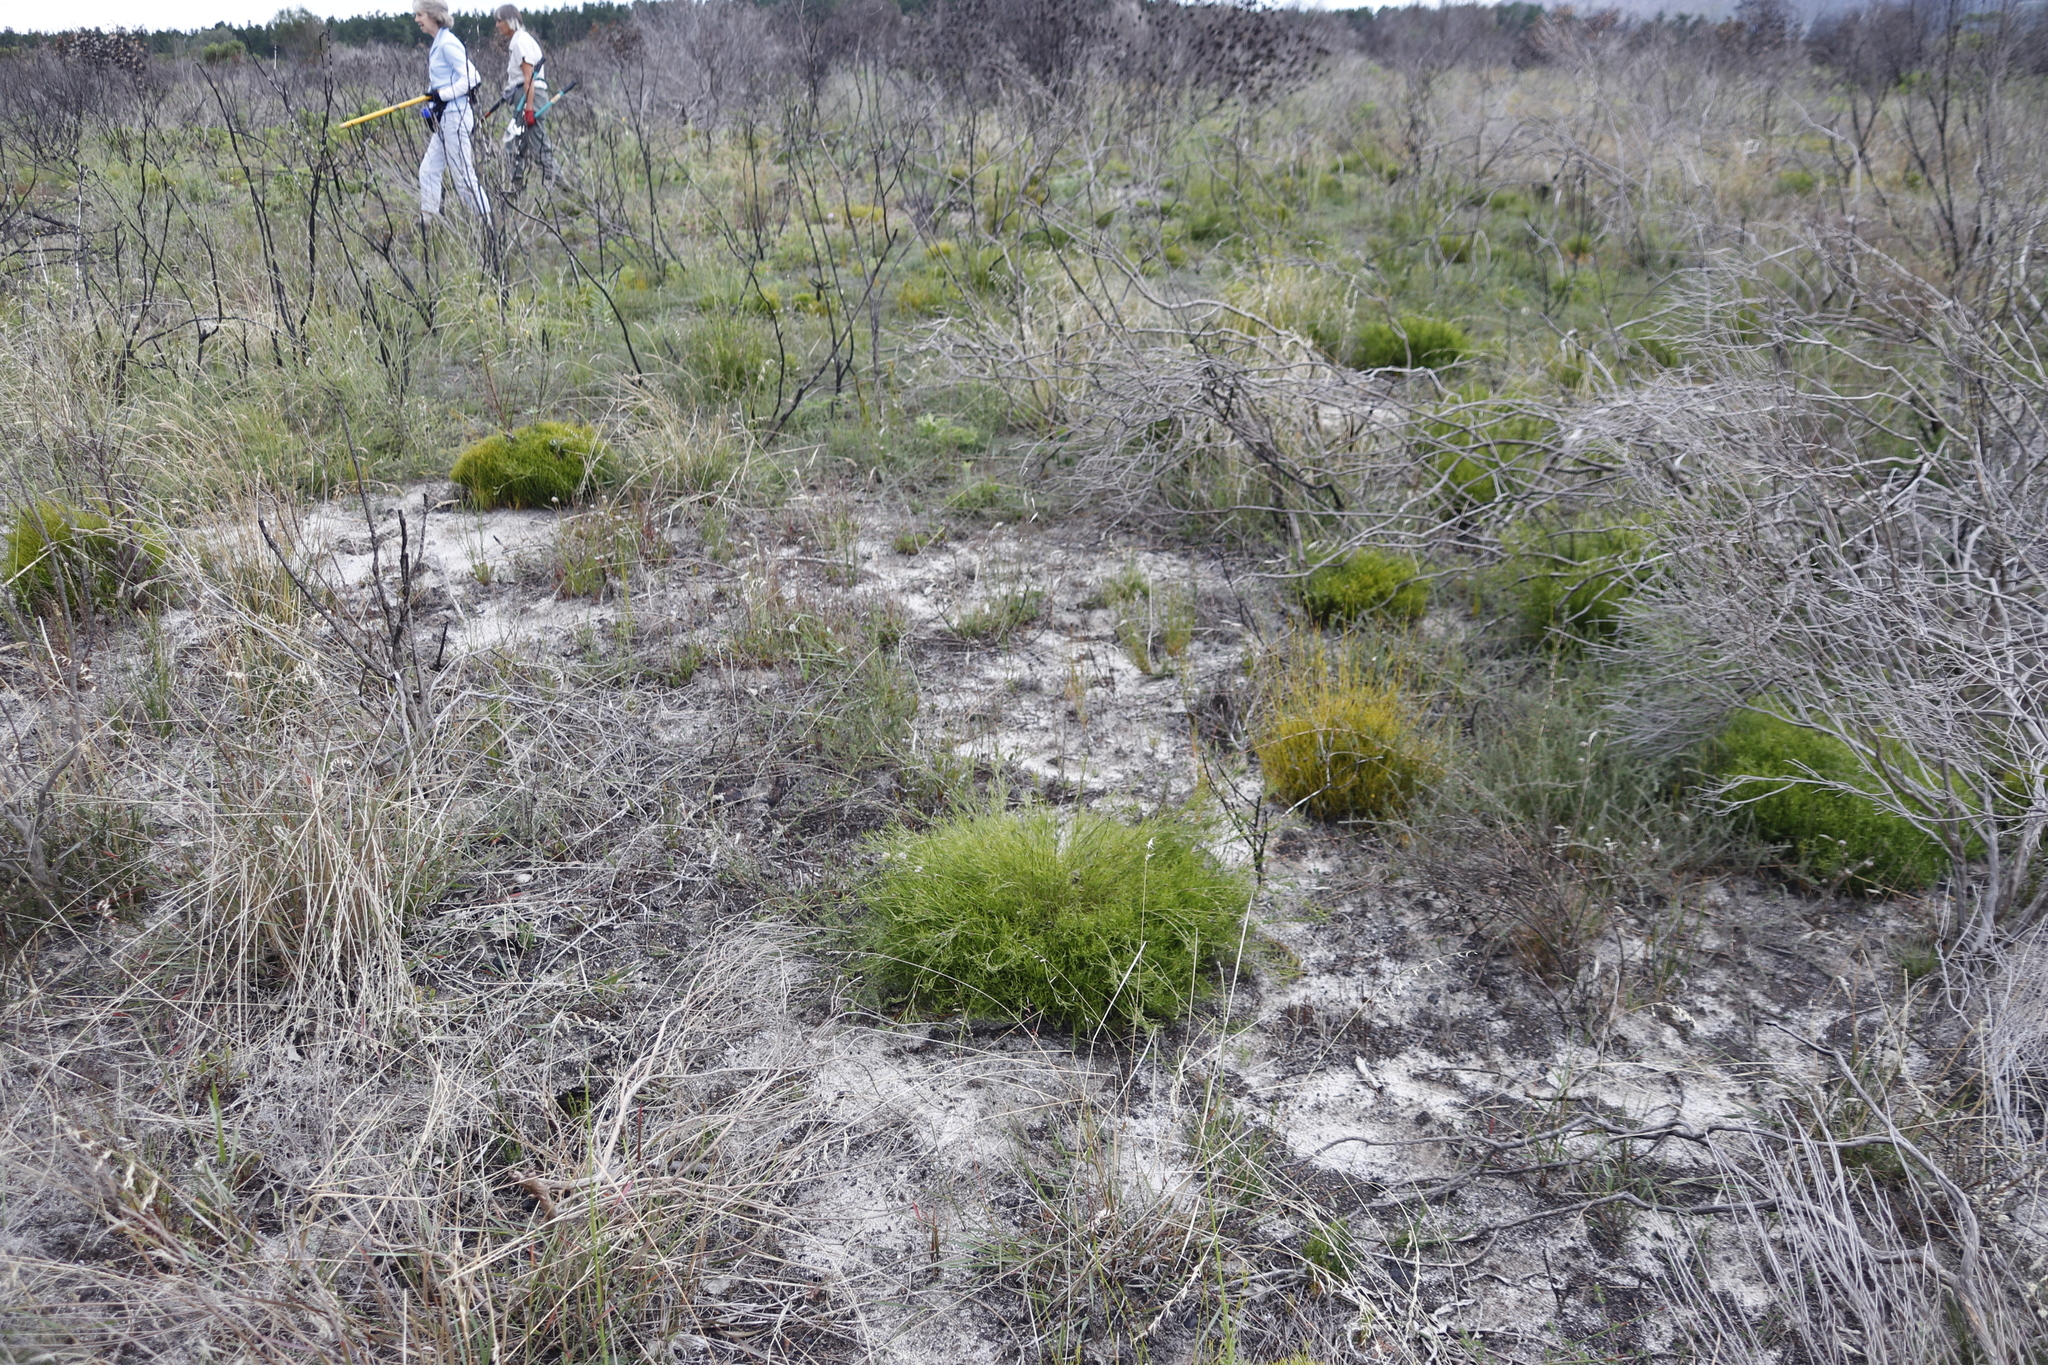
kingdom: Plantae
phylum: Tracheophyta
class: Liliopsida
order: Poales
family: Restionaceae
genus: Restio
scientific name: Restio capensis
